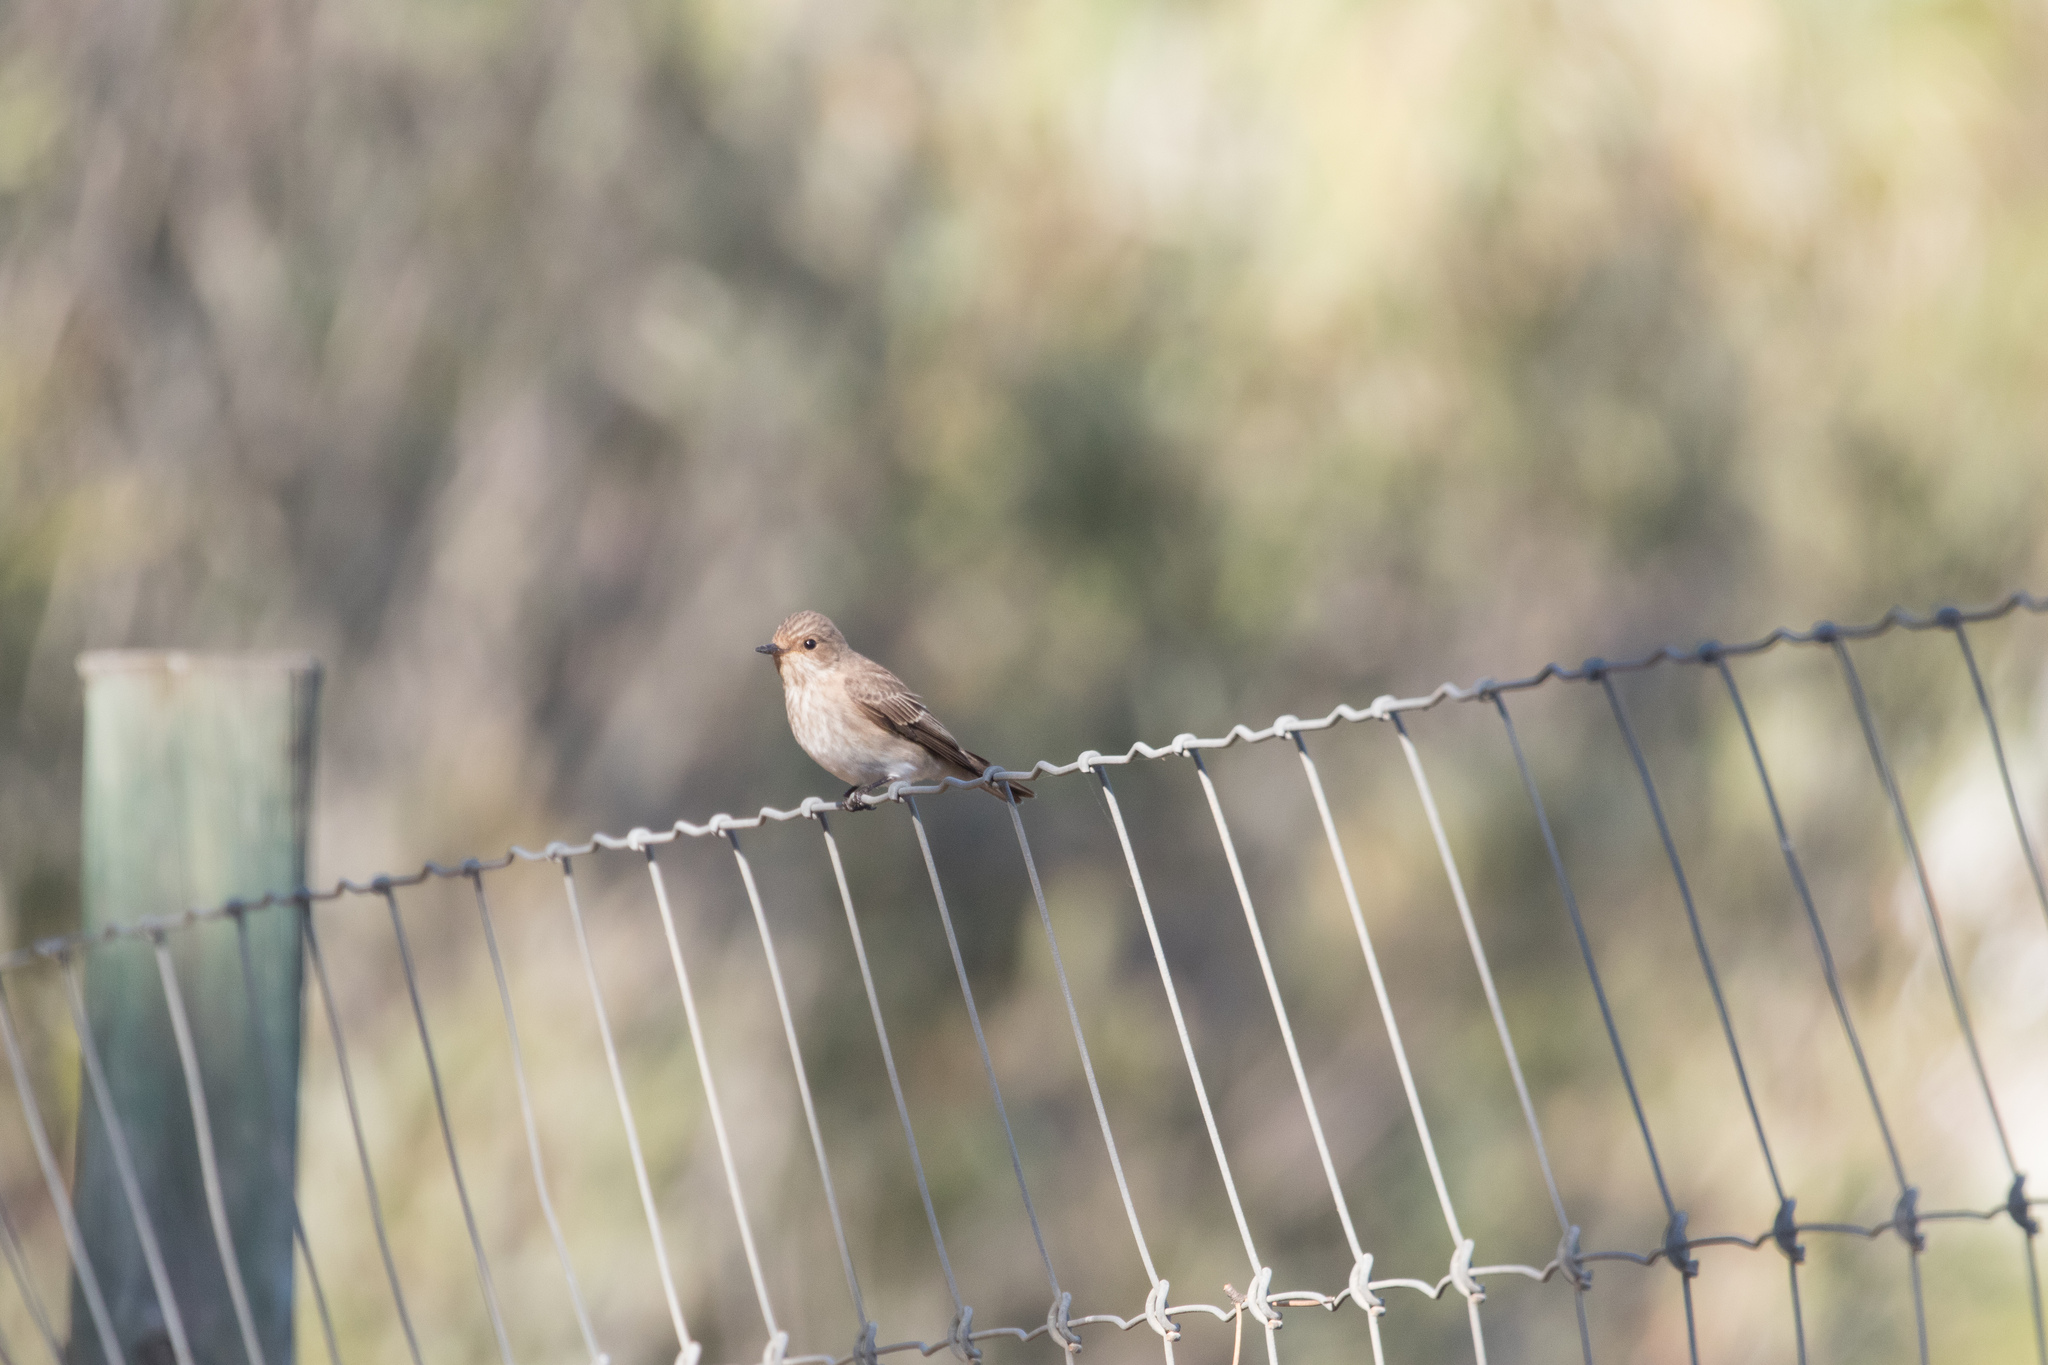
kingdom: Animalia
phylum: Chordata
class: Aves
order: Passeriformes
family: Muscicapidae
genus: Muscicapa
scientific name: Muscicapa striata
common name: Spotted flycatcher
